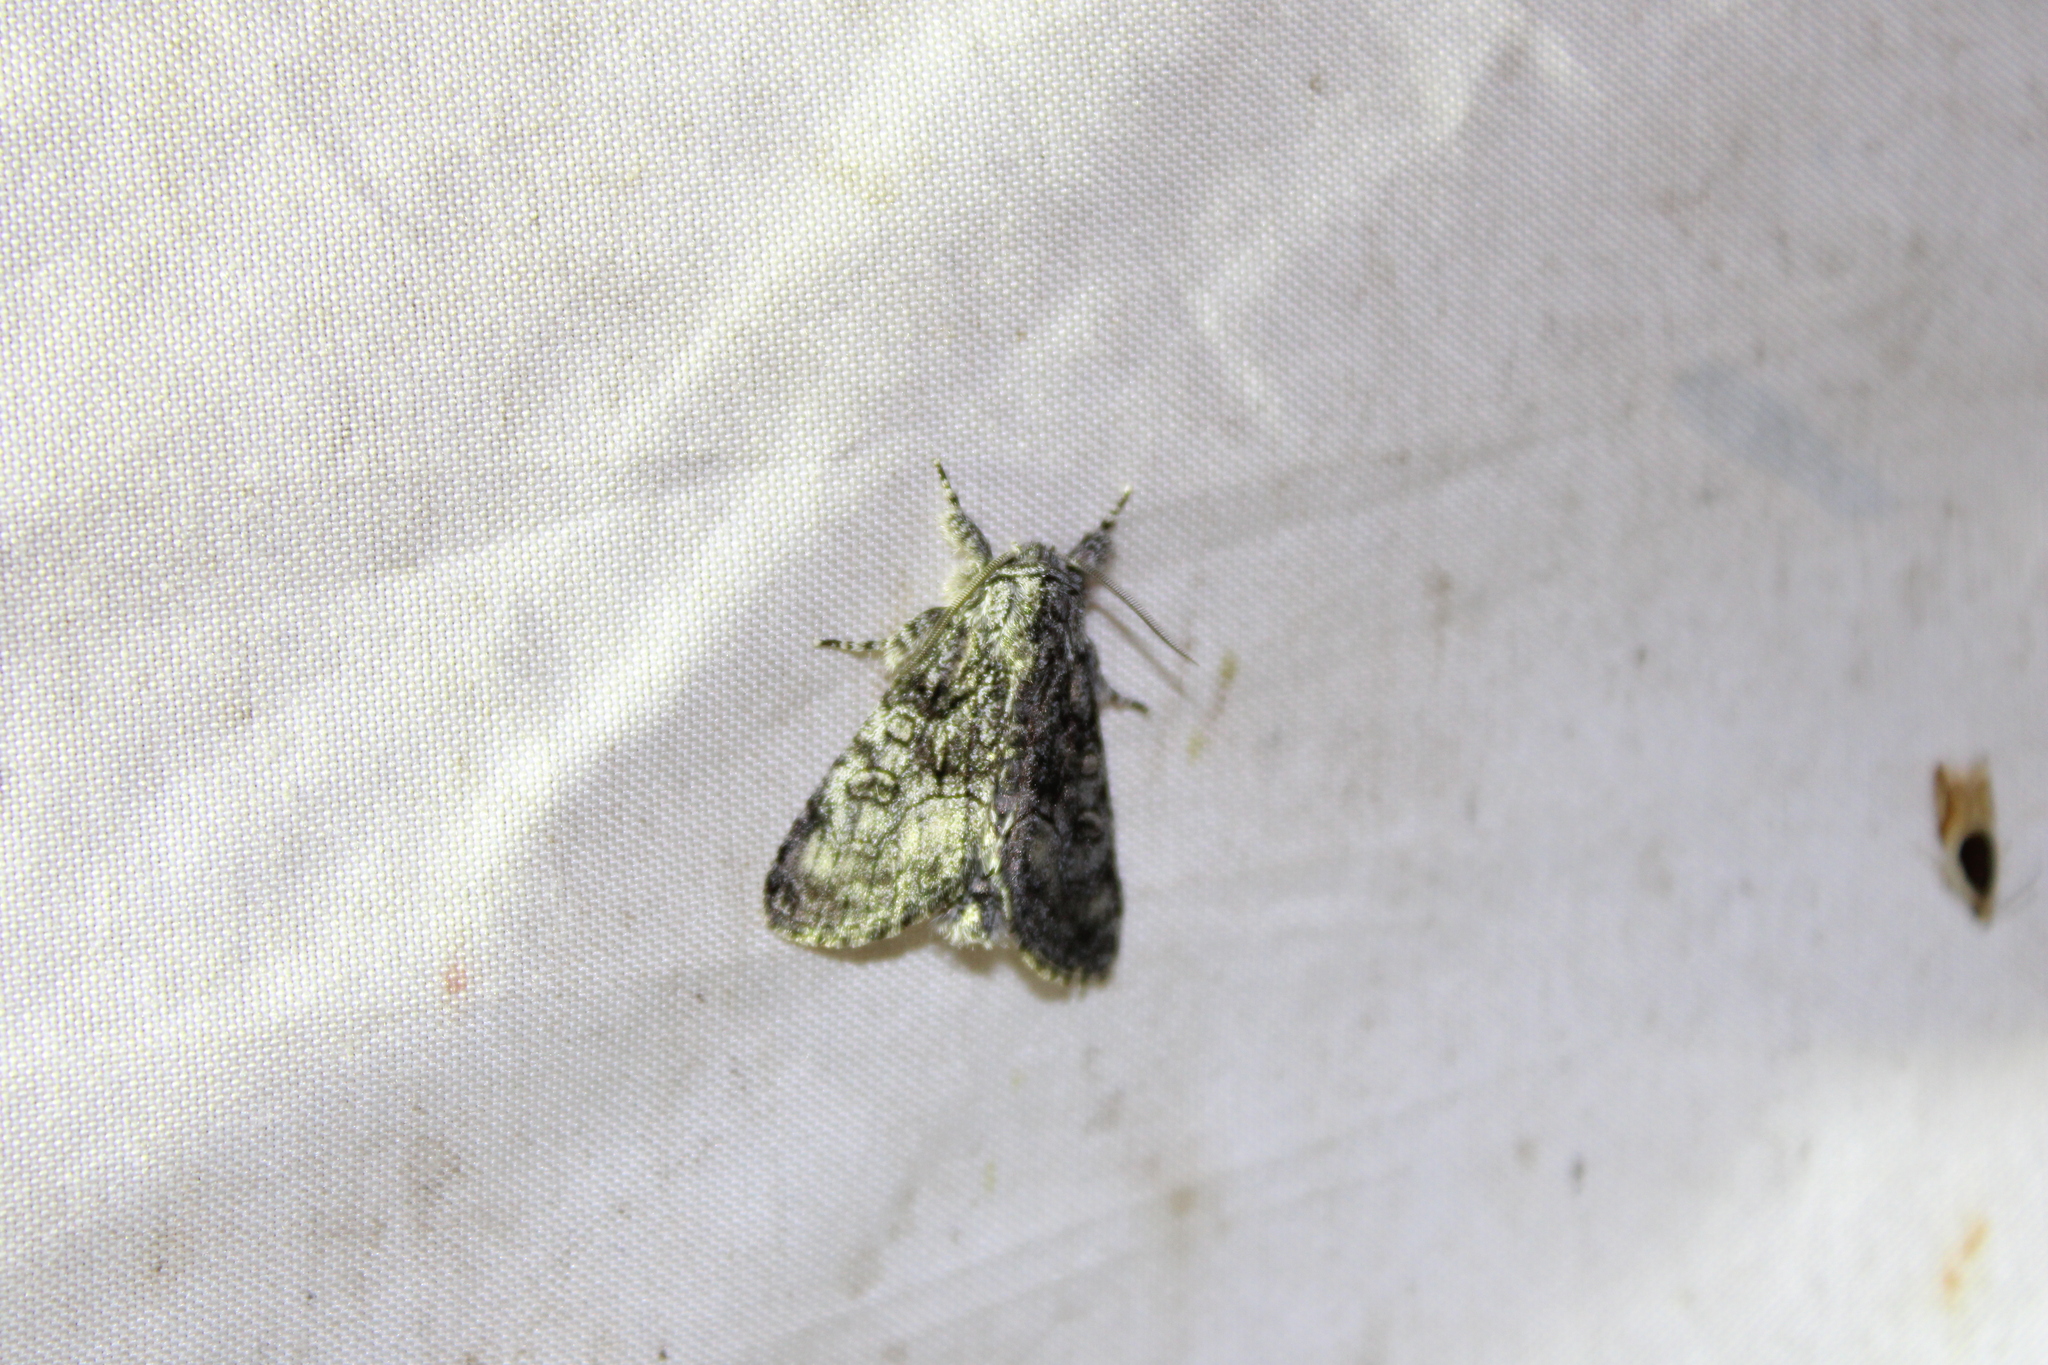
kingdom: Animalia
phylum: Arthropoda
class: Insecta
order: Lepidoptera
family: Noctuidae
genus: Raphia
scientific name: Raphia frater
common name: Brother
